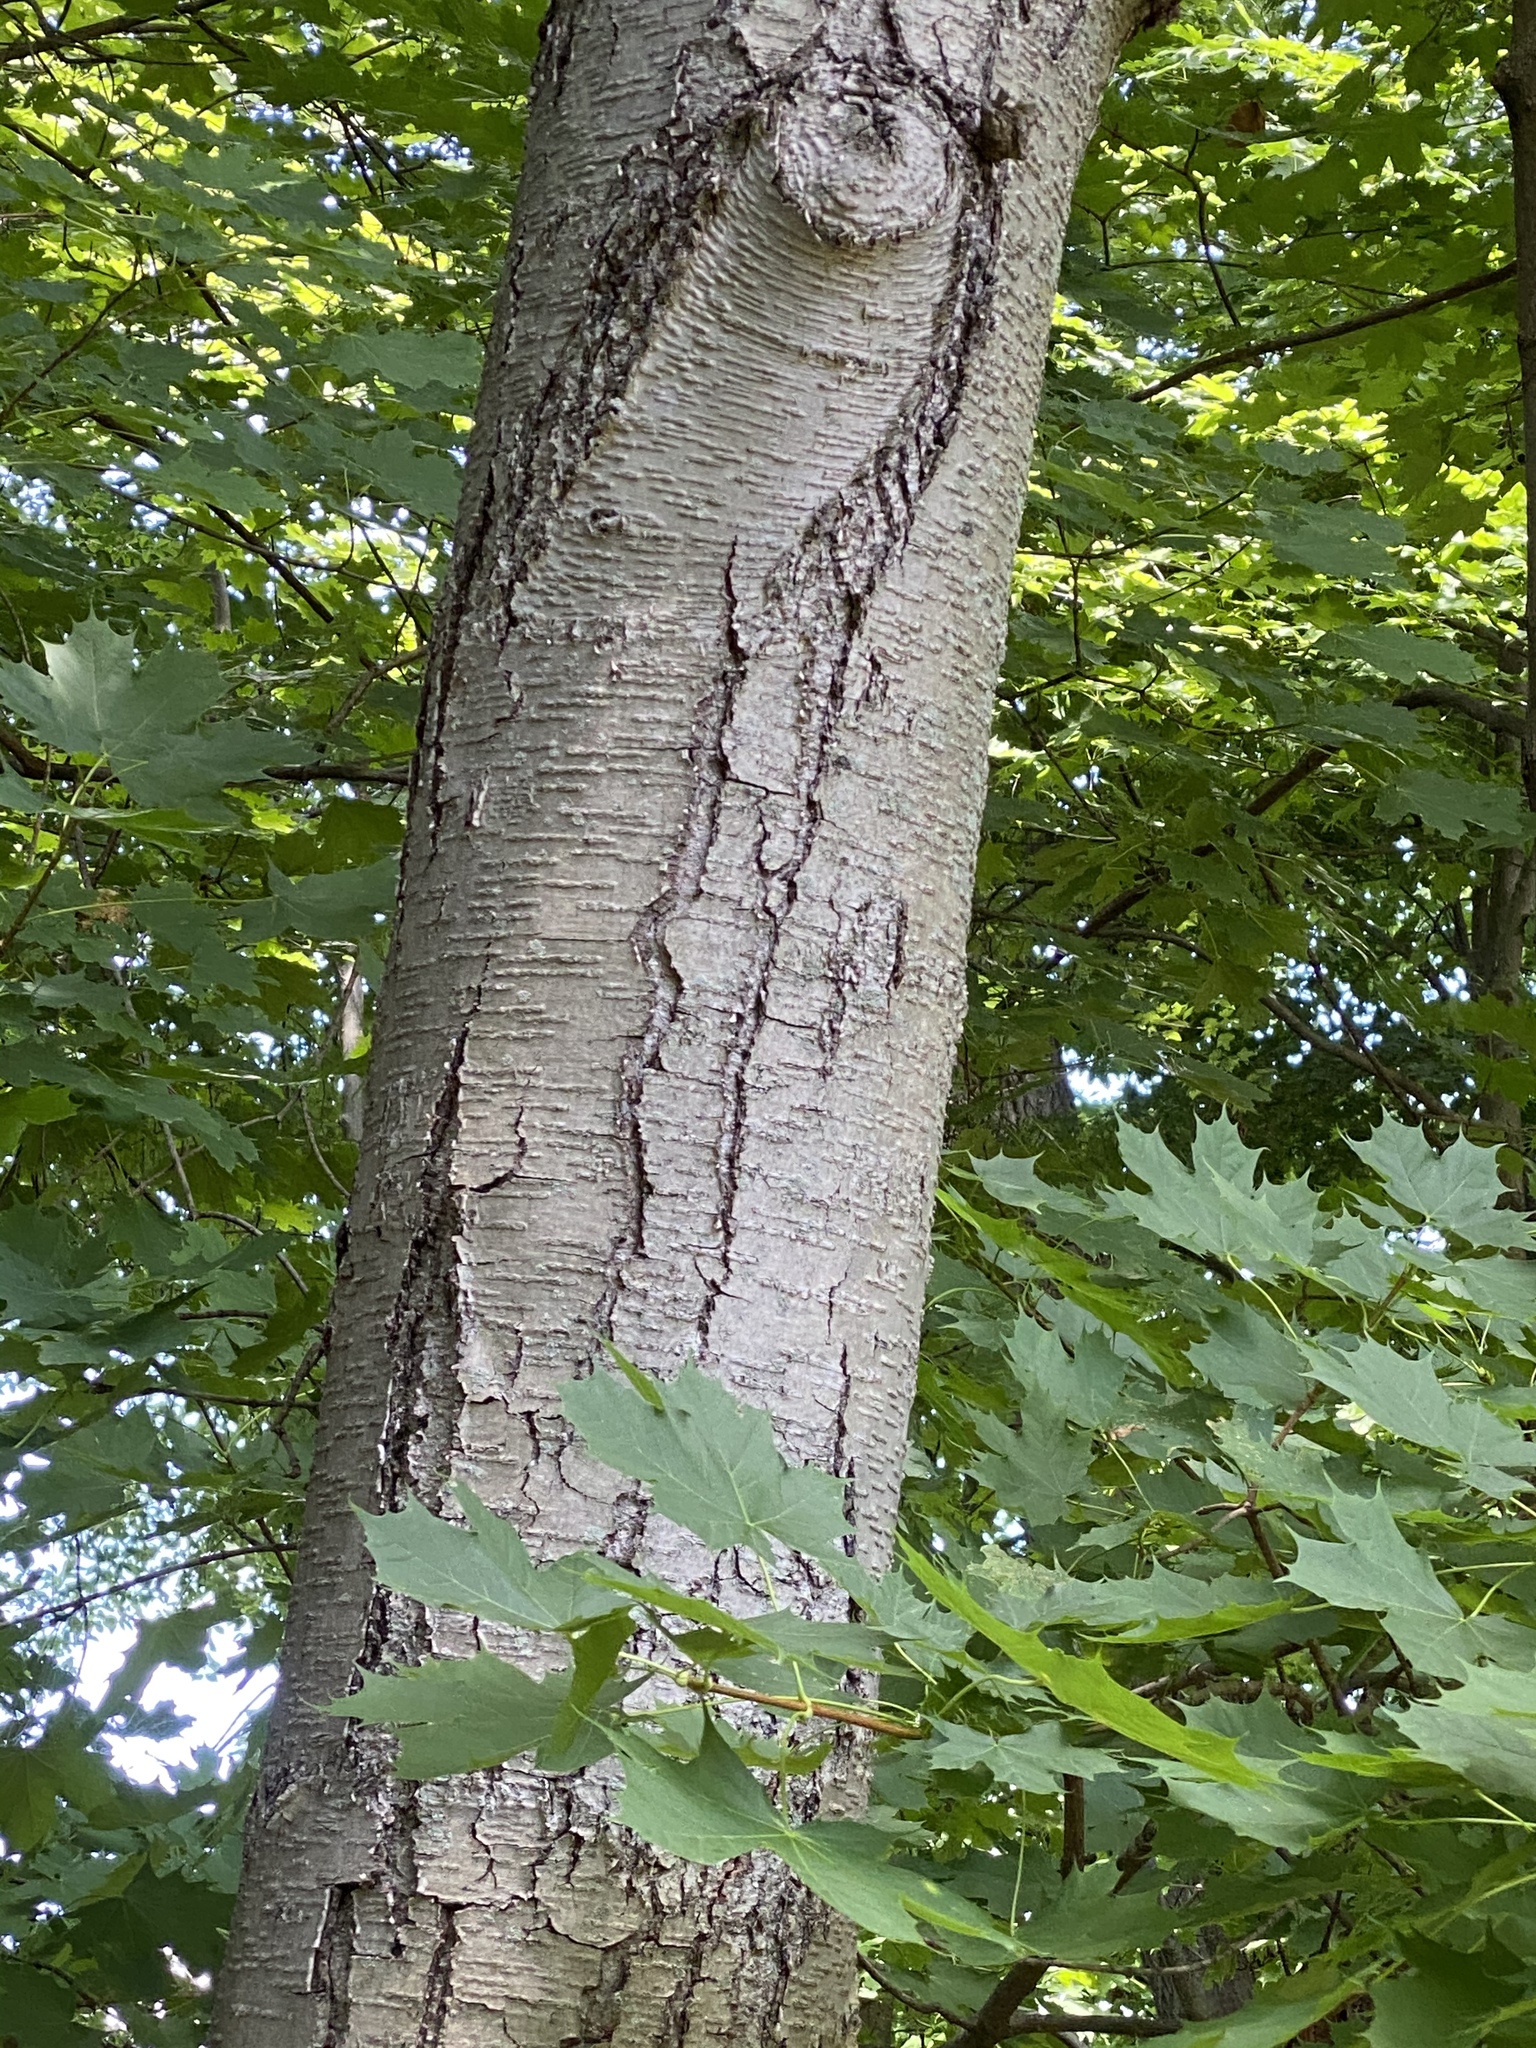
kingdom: Plantae
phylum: Tracheophyta
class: Magnoliopsida
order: Fagales
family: Betulaceae
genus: Betula
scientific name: Betula lenta
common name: Black birch
